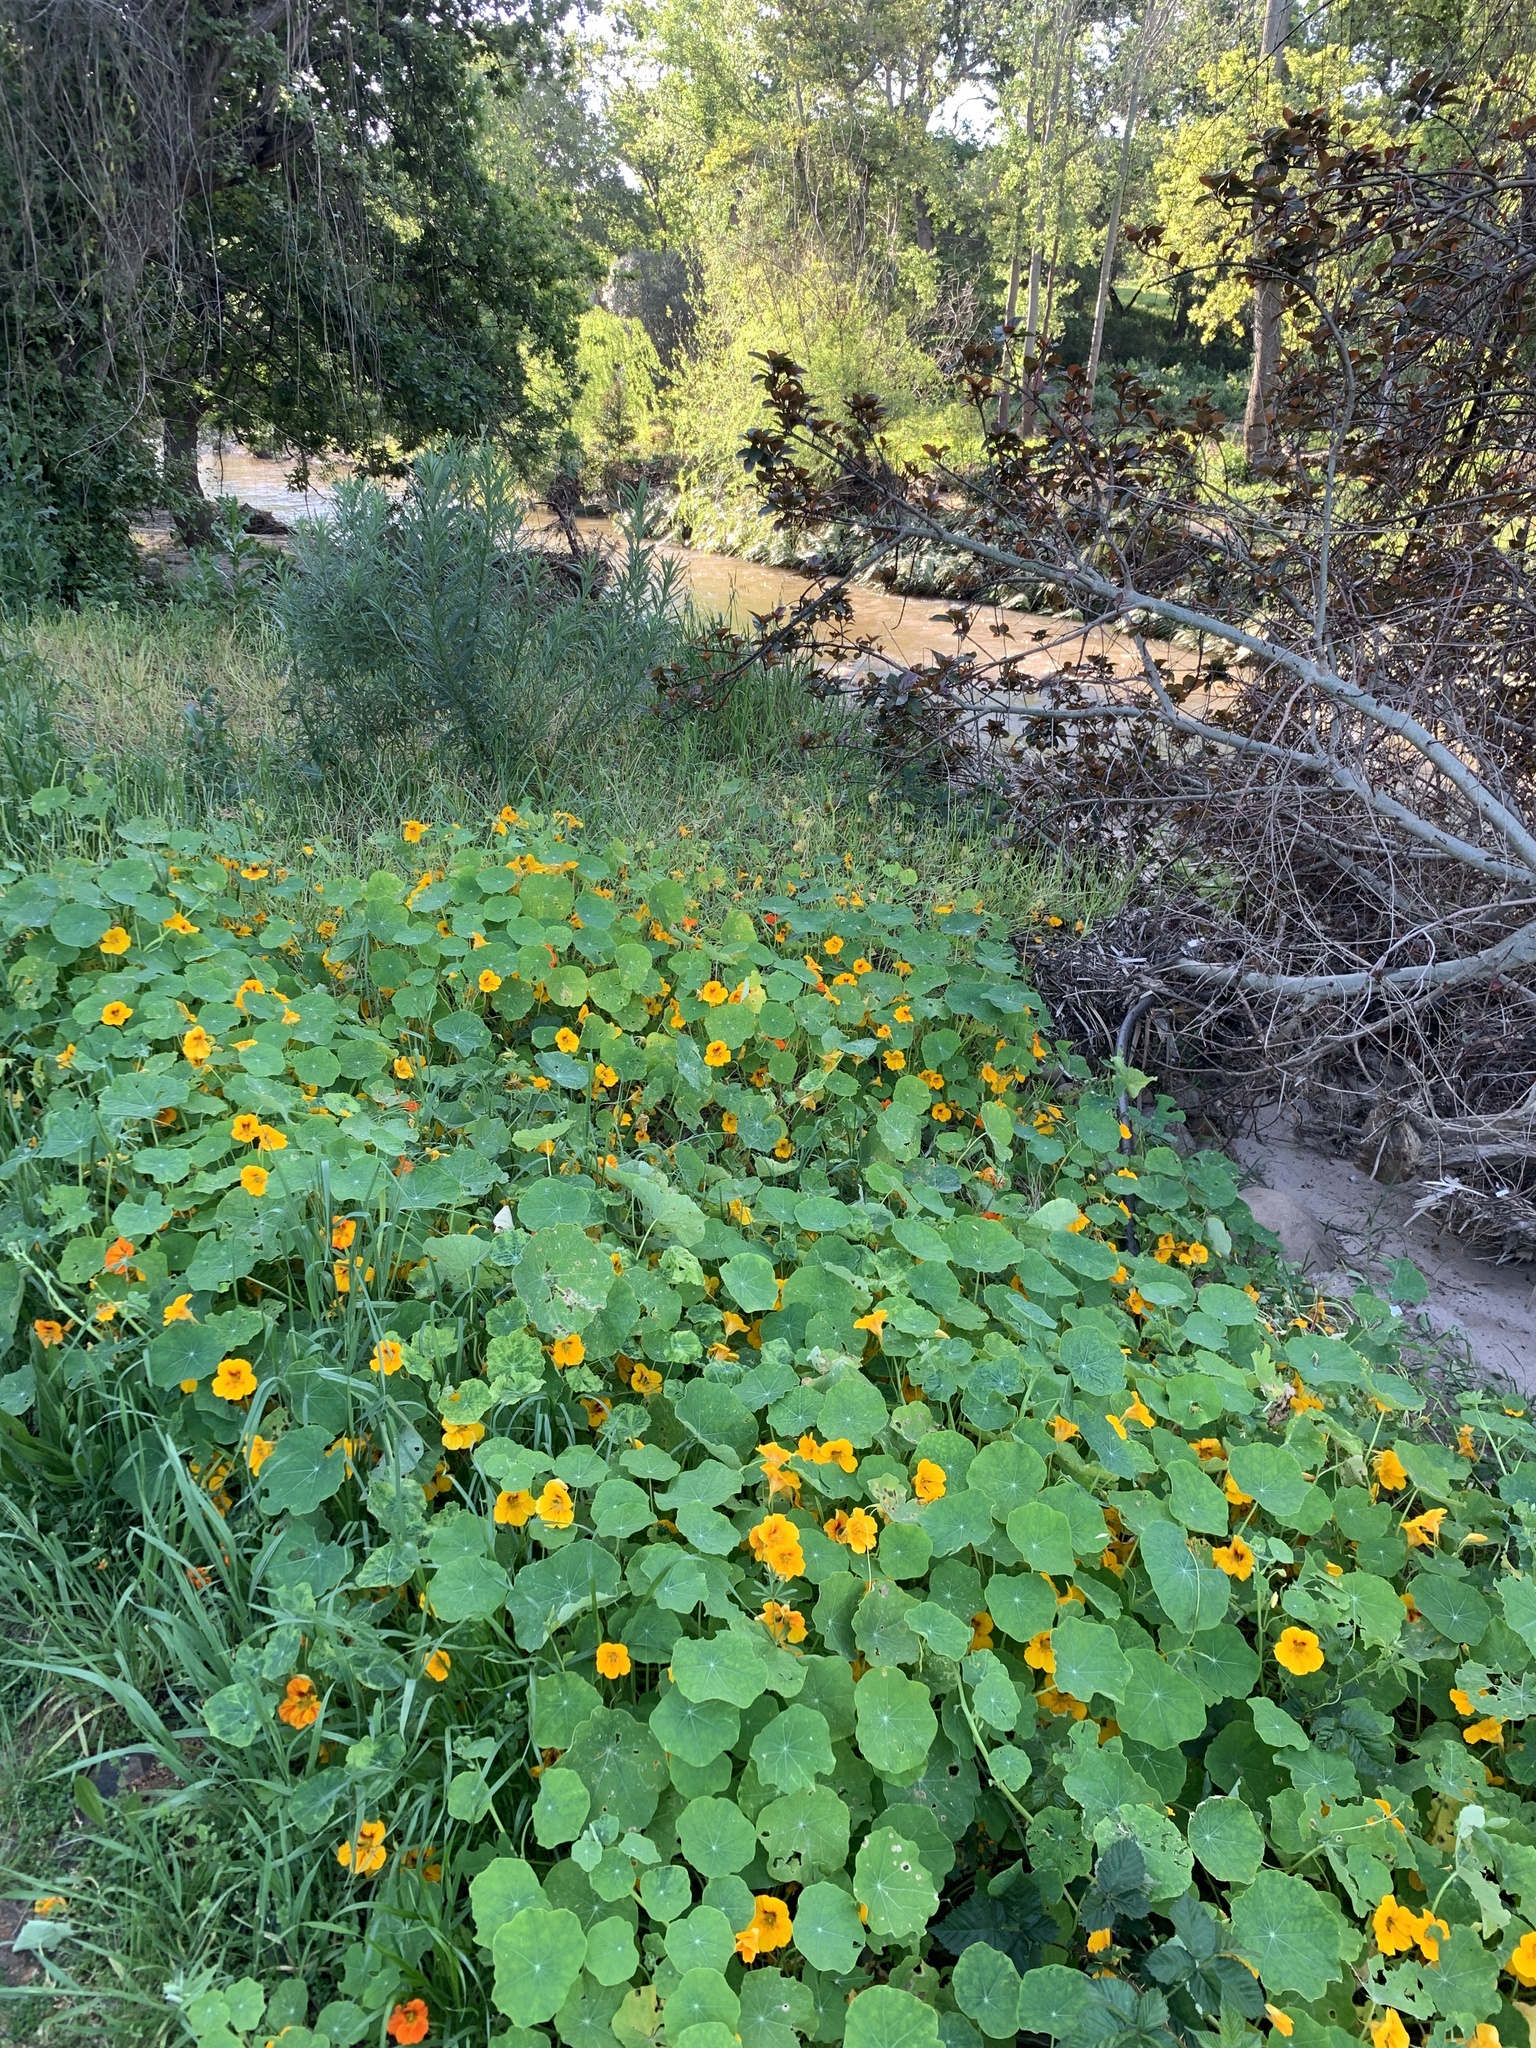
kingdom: Plantae
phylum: Tracheophyta
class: Magnoliopsida
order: Brassicales
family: Tropaeolaceae
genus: Tropaeolum
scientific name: Tropaeolum majus
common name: Nasturtium
